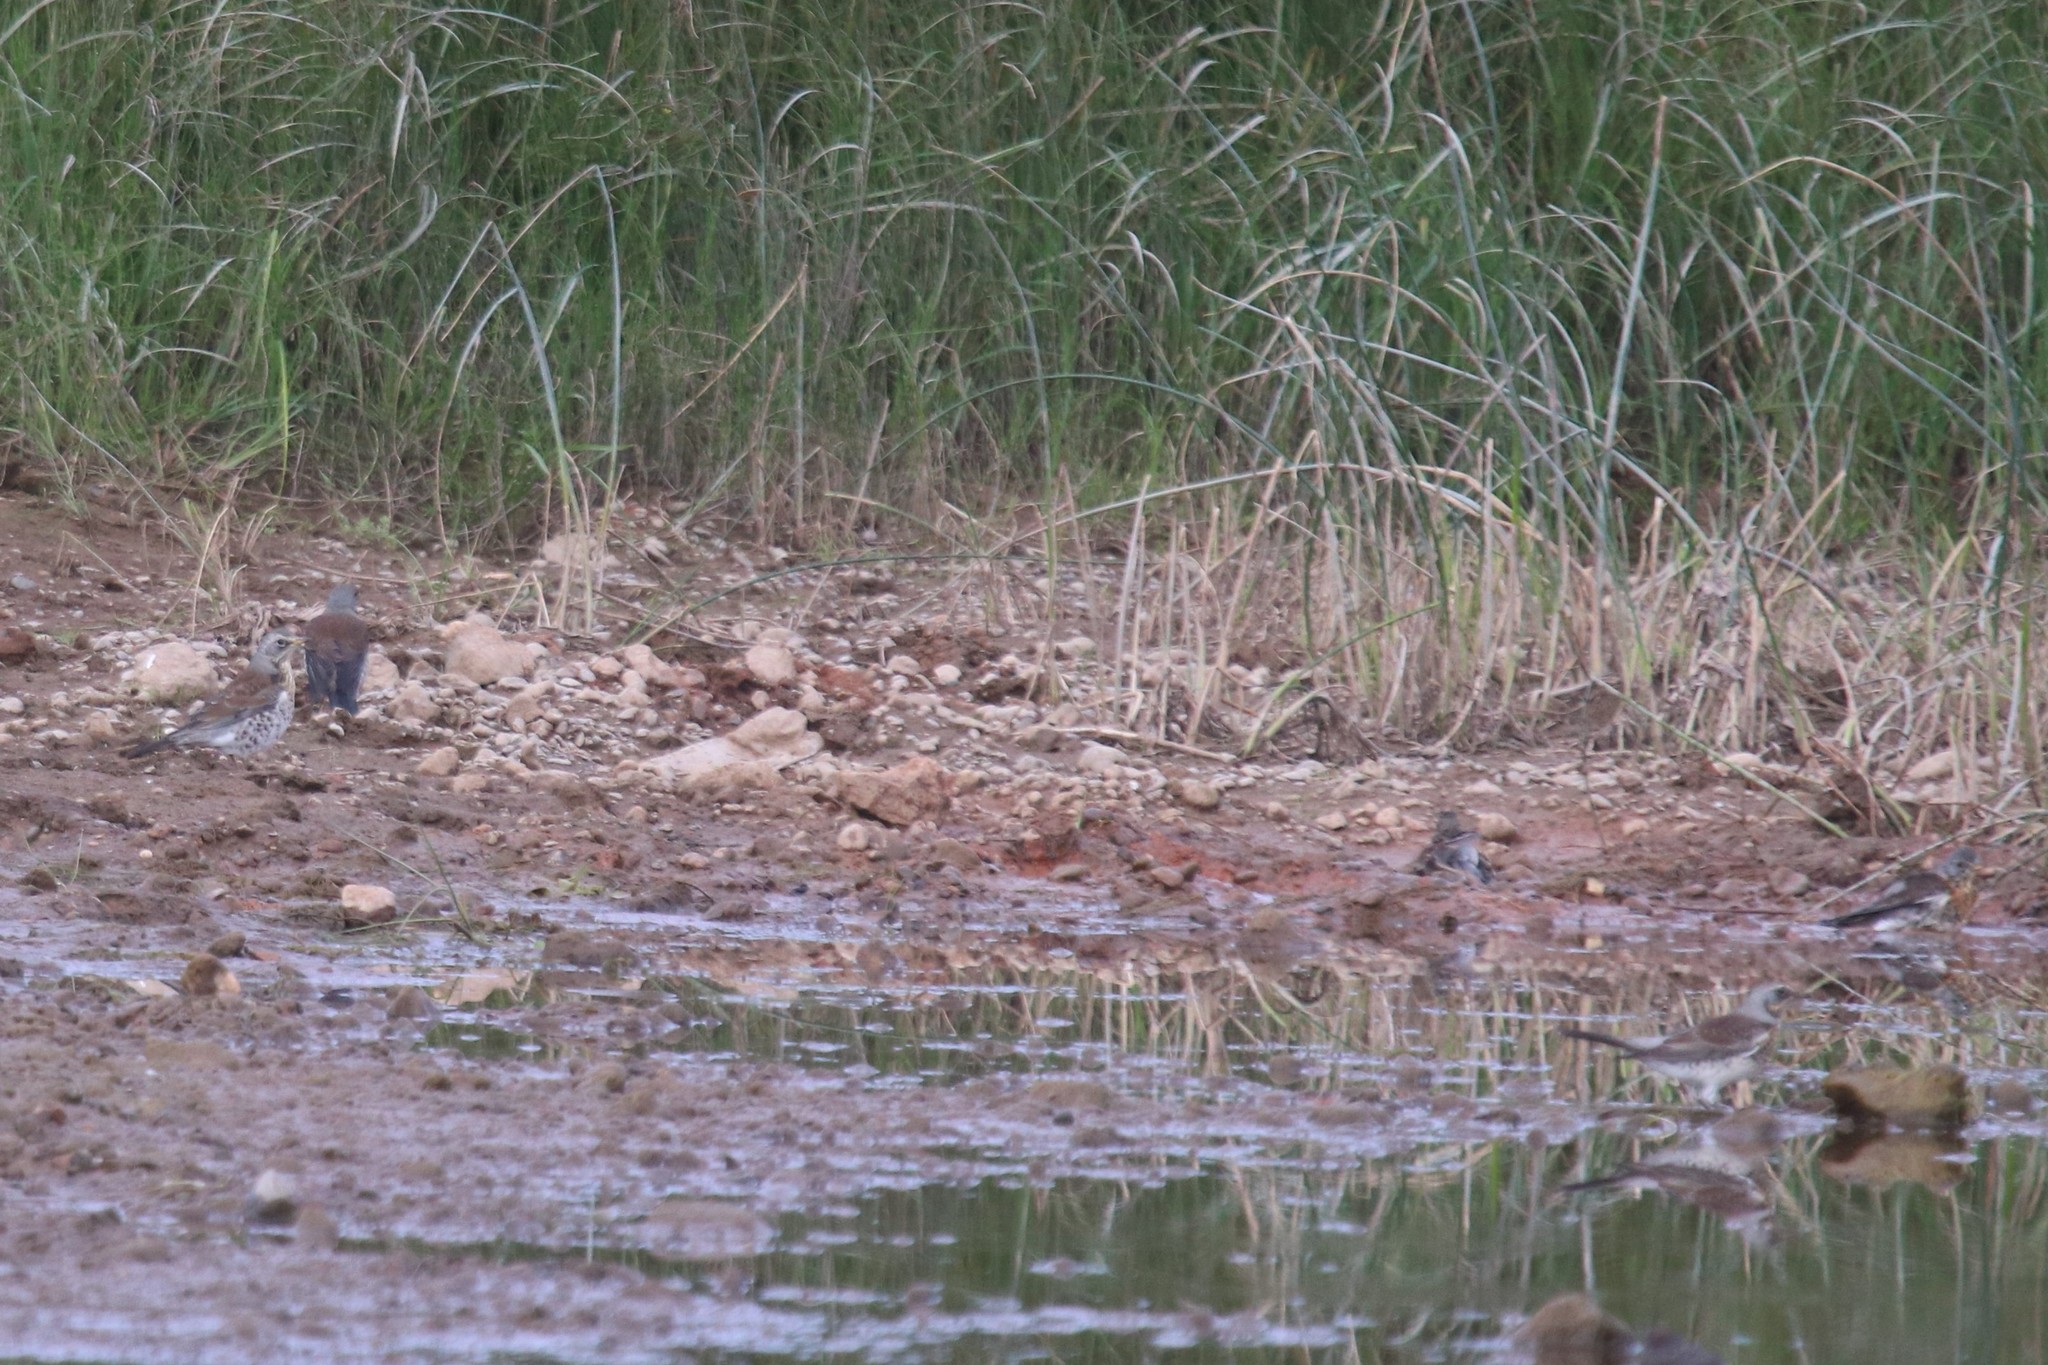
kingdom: Animalia
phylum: Chordata
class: Aves
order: Passeriformes
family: Turdidae
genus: Turdus
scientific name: Turdus pilaris
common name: Fieldfare
